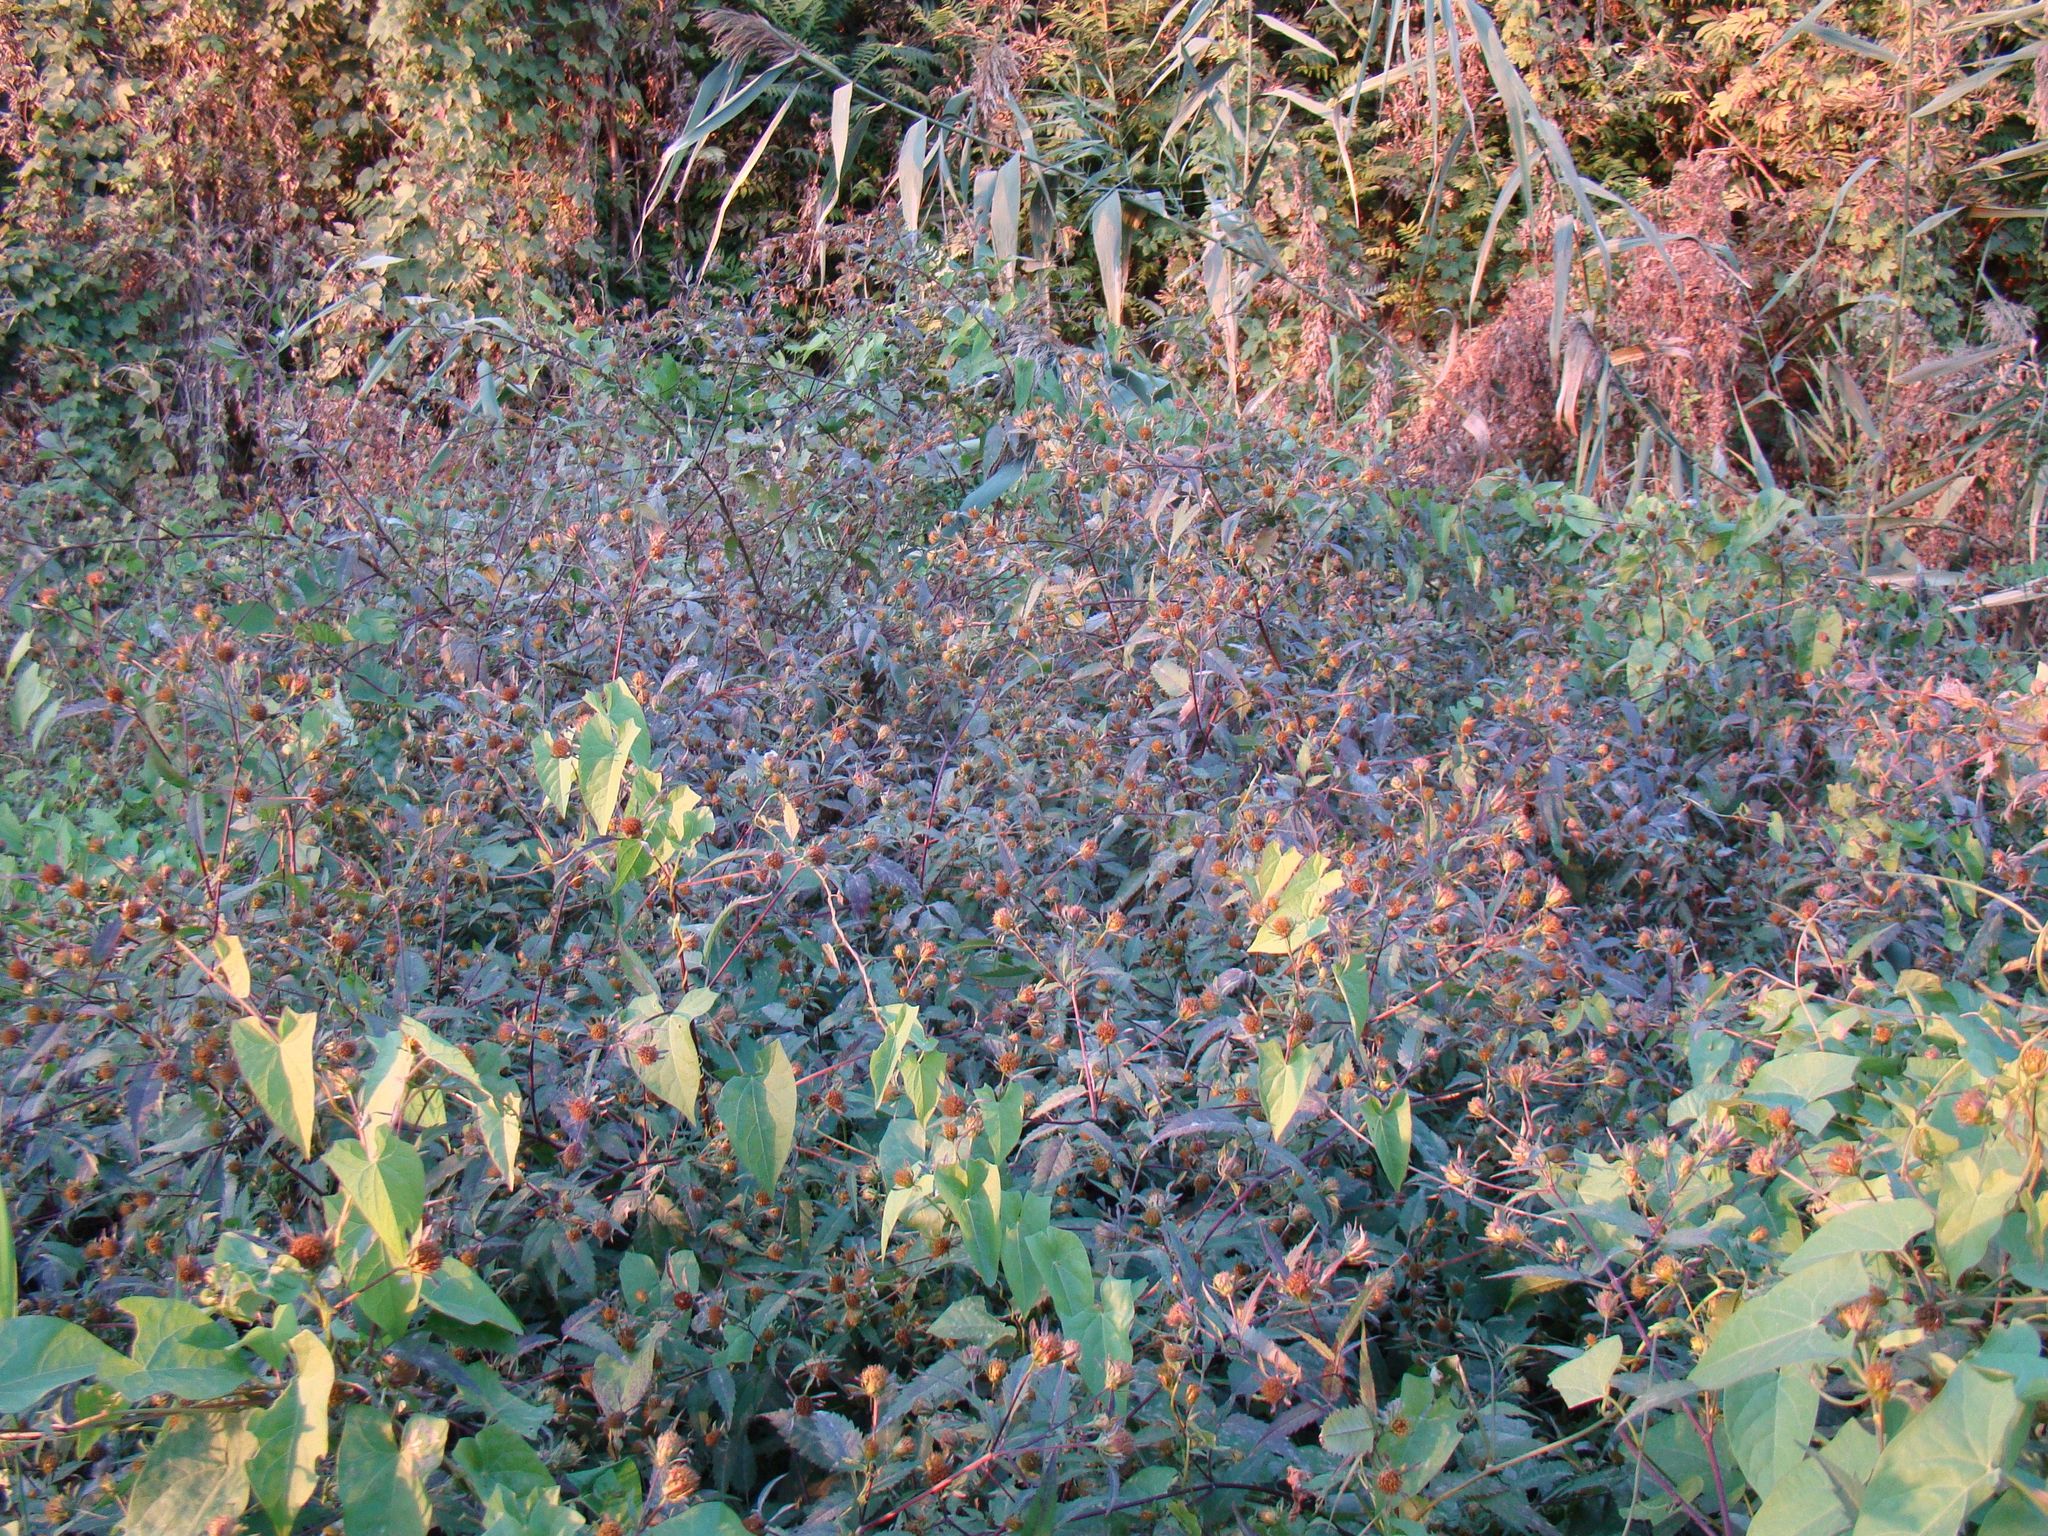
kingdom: Plantae
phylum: Tracheophyta
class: Magnoliopsida
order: Asterales
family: Asteraceae
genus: Bidens
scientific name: Bidens frondosa
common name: Beggarticks
